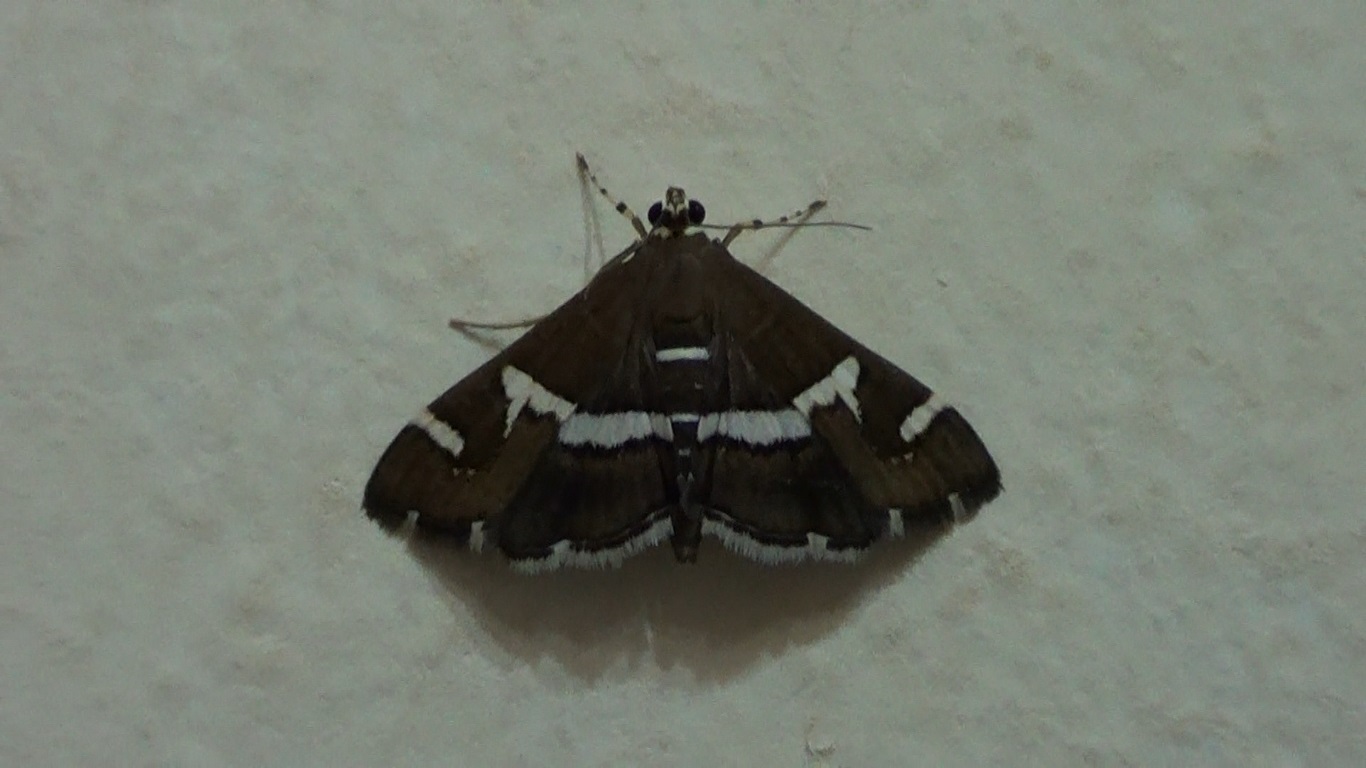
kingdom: Animalia
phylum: Arthropoda
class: Insecta
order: Lepidoptera
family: Crambidae
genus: Spoladea
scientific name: Spoladea recurvalis
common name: Beet webworm moth
